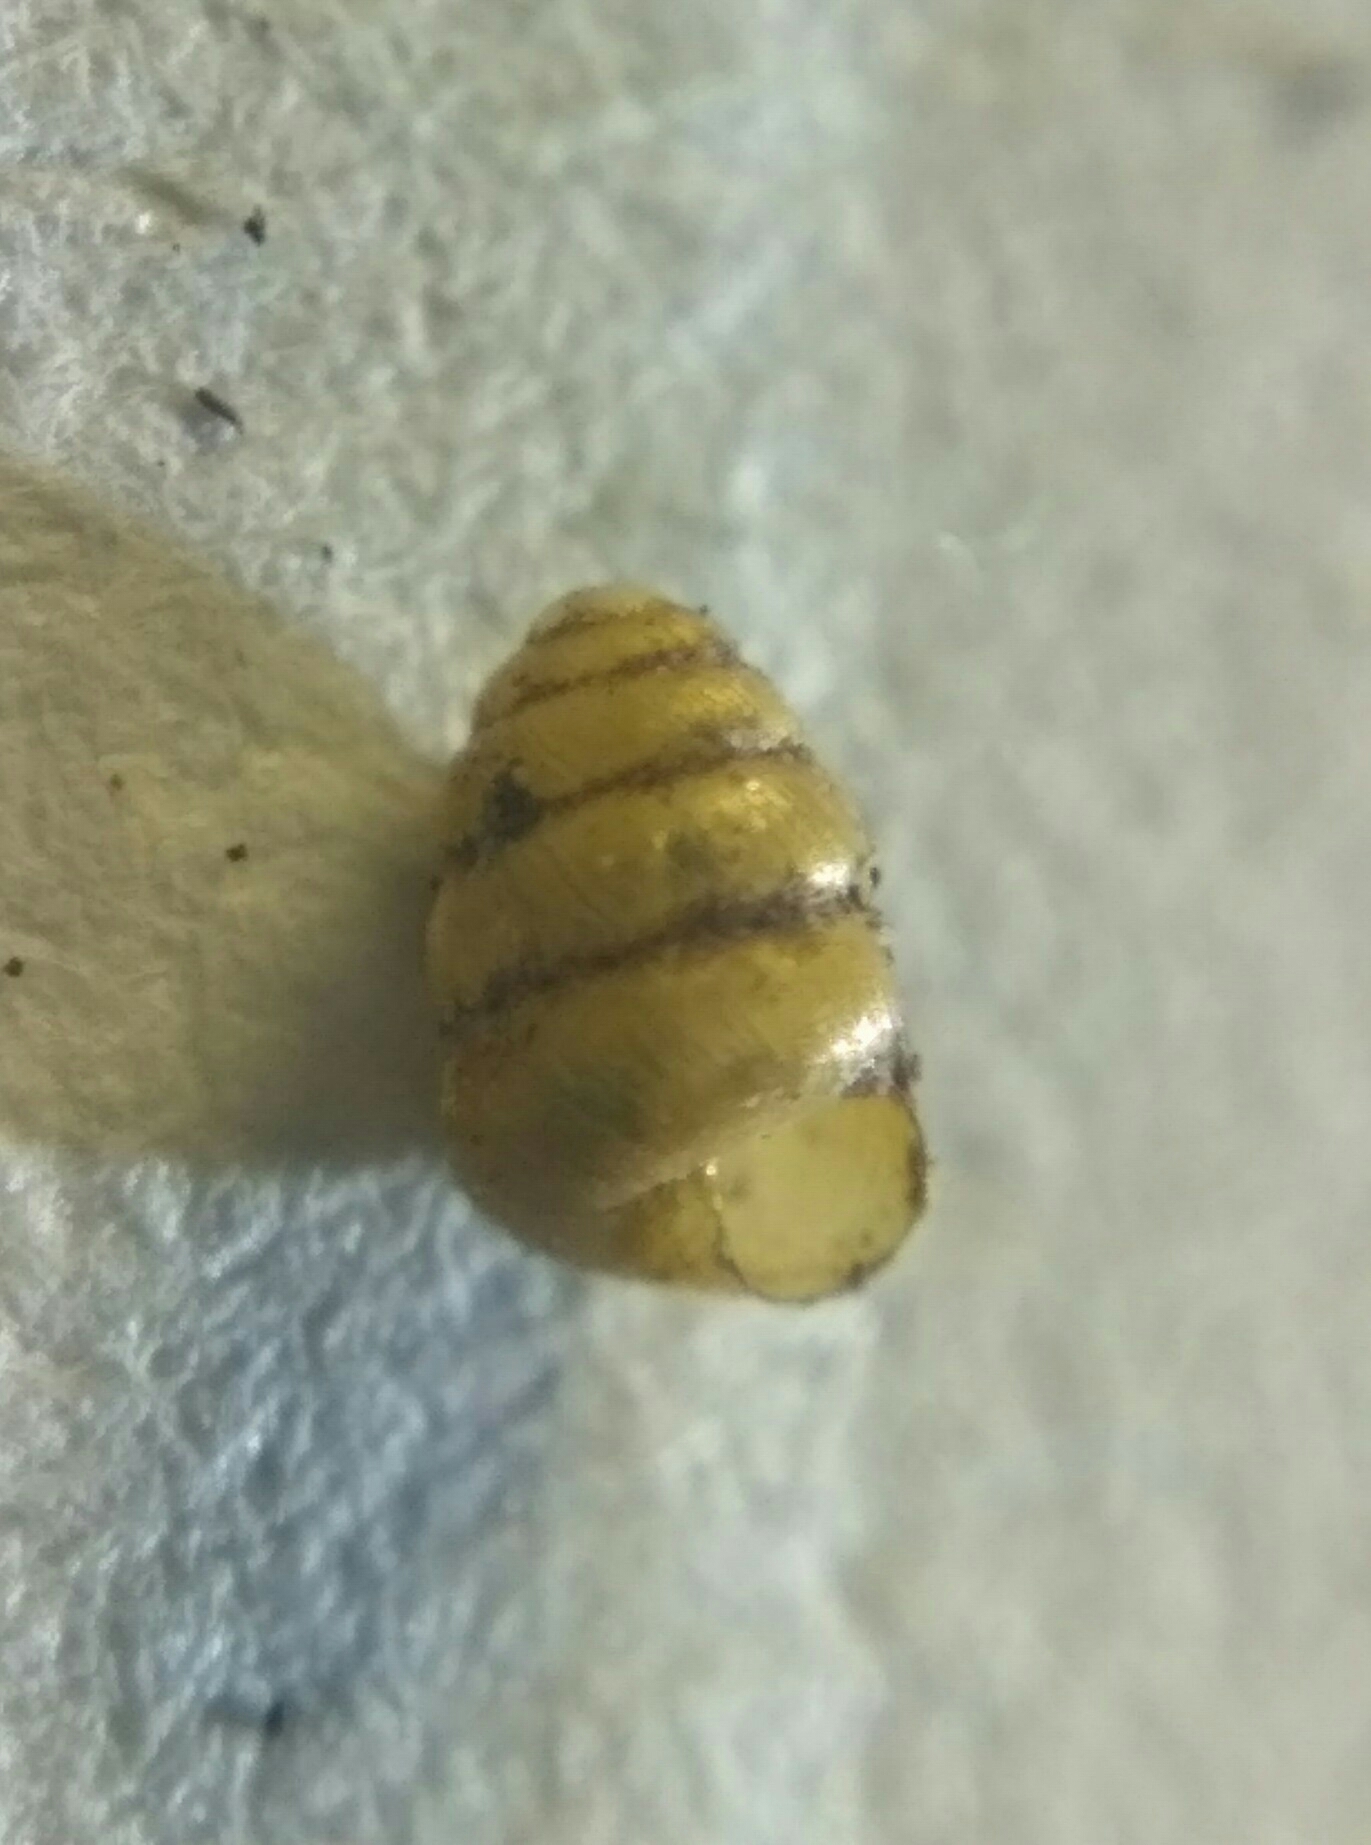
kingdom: Animalia
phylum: Mollusca
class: Gastropoda
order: Stylommatophora
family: Truncatellinidae
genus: Columella
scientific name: Columella edentula
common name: Toothless chrysalis snail
